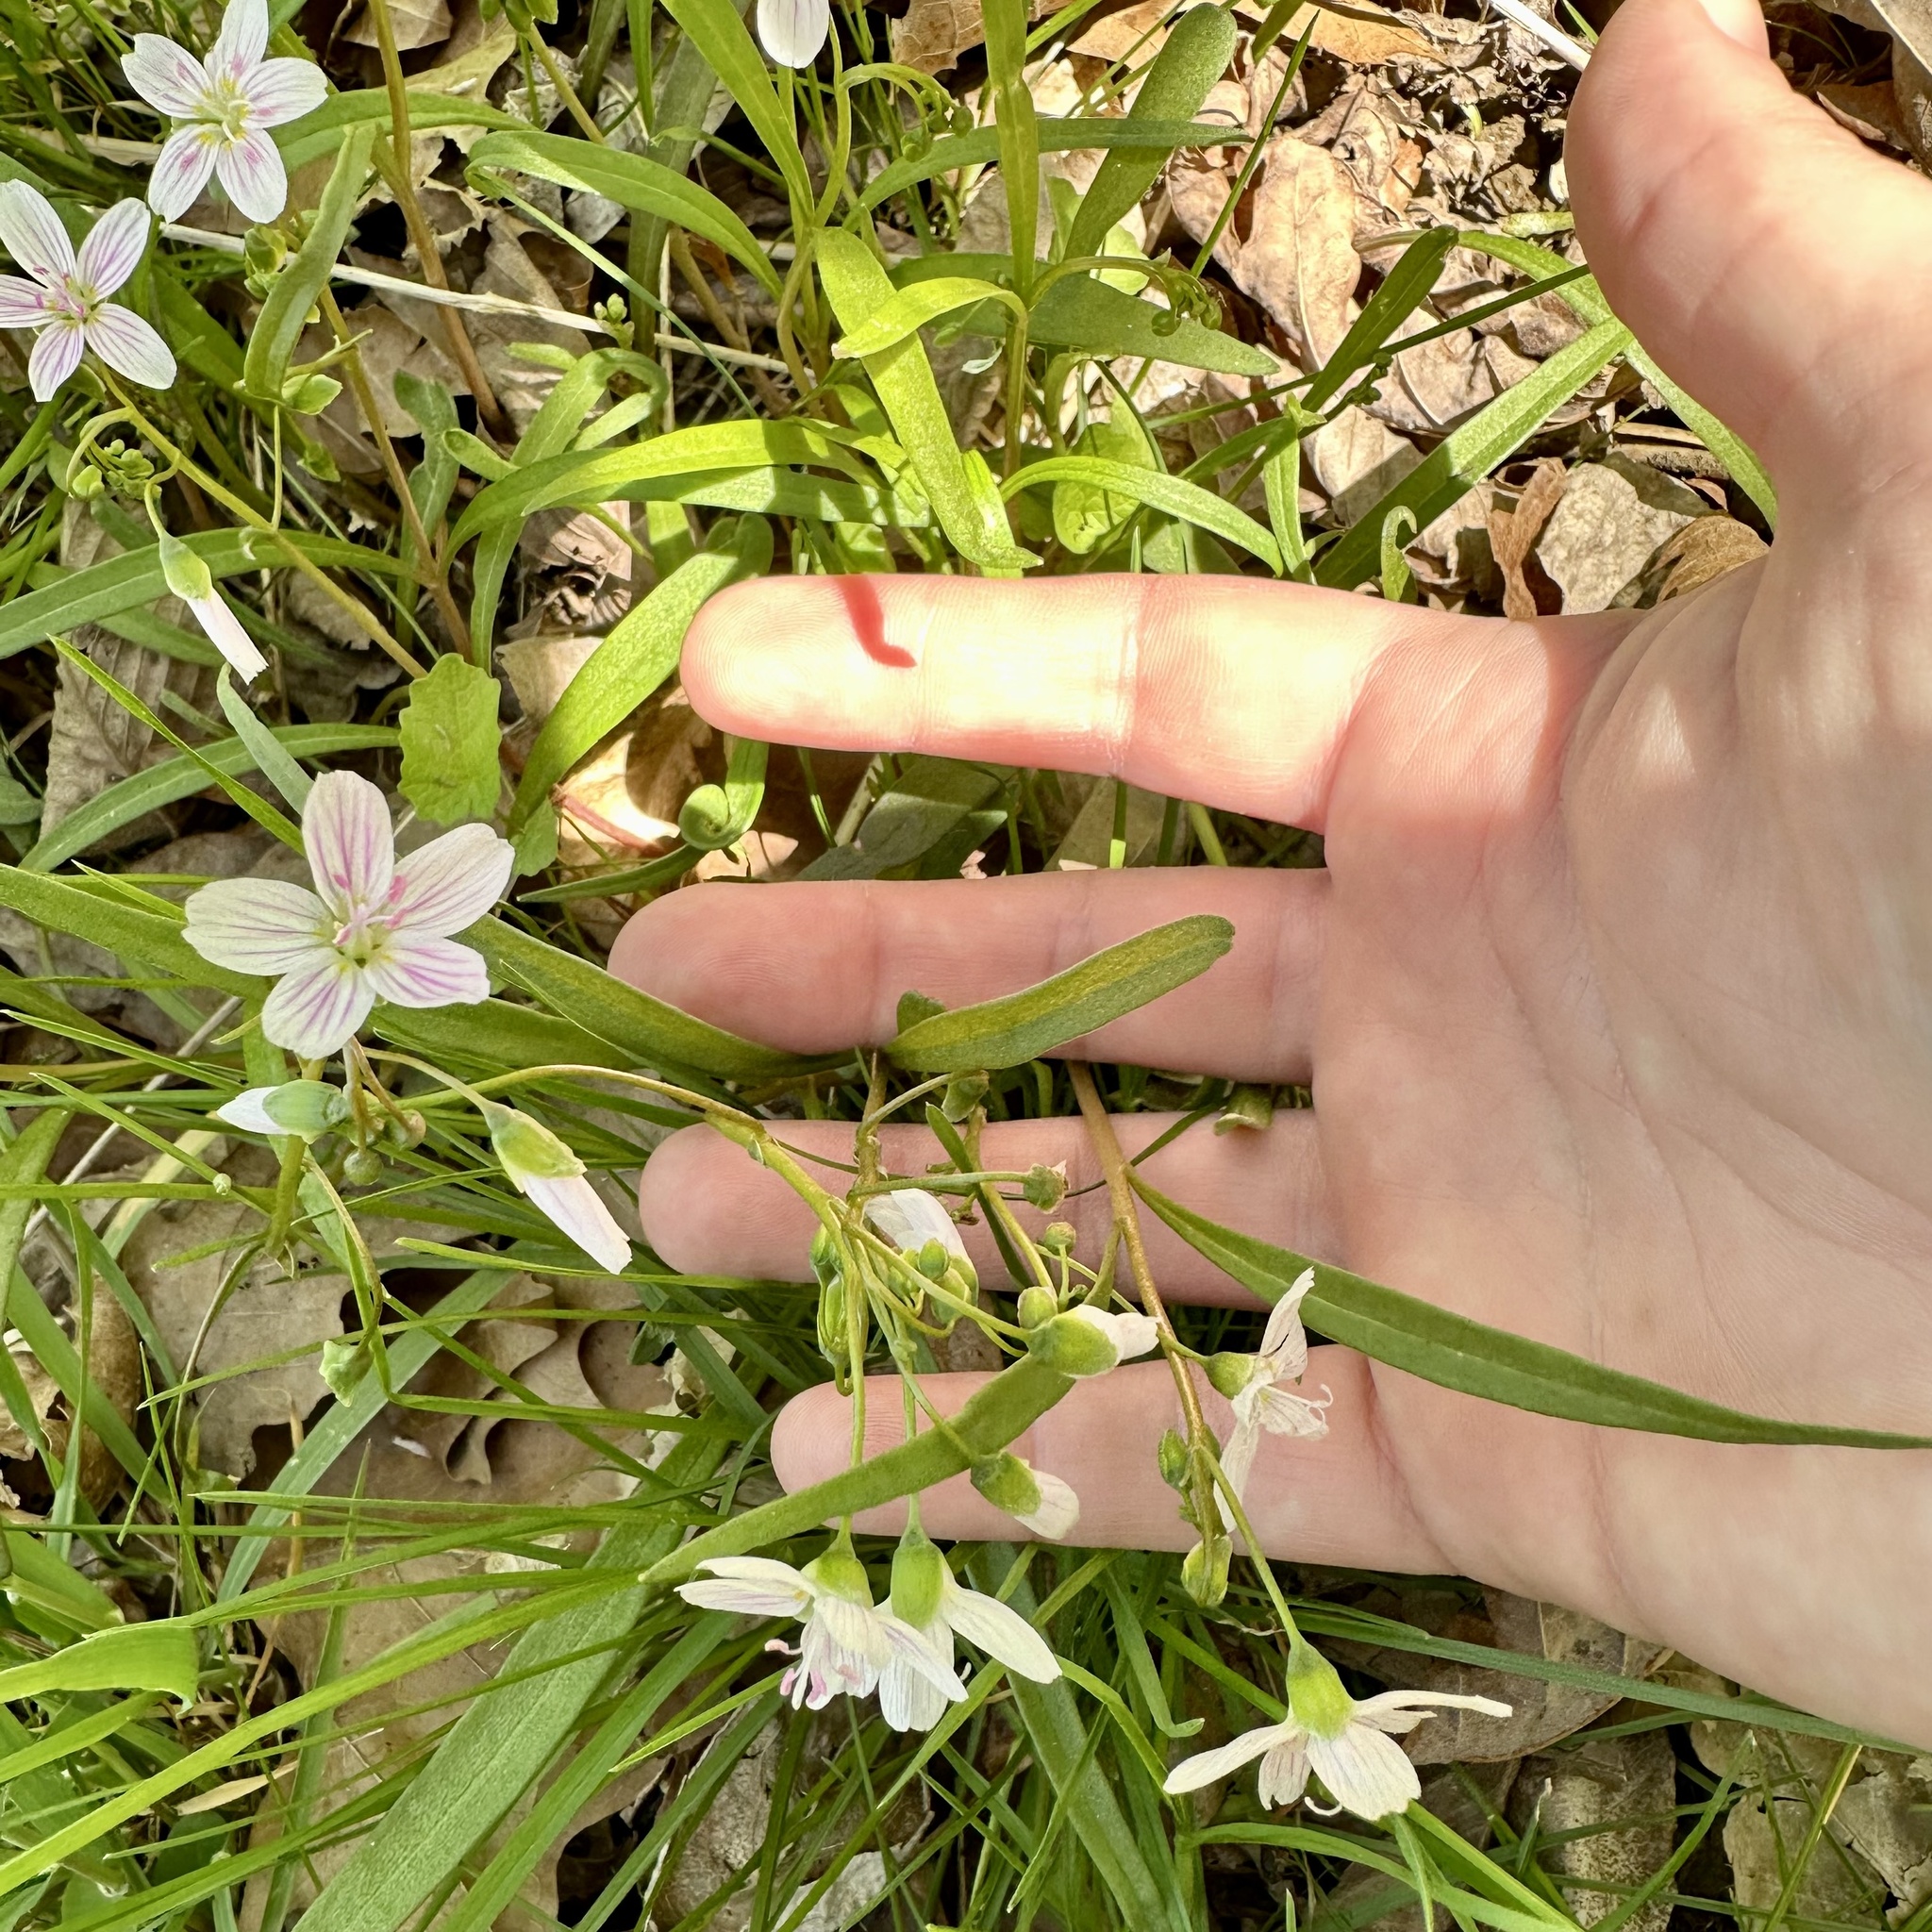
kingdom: Plantae
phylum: Tracheophyta
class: Magnoliopsida
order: Caryophyllales
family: Montiaceae
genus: Claytonia
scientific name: Claytonia virginica
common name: Virginia springbeauty
